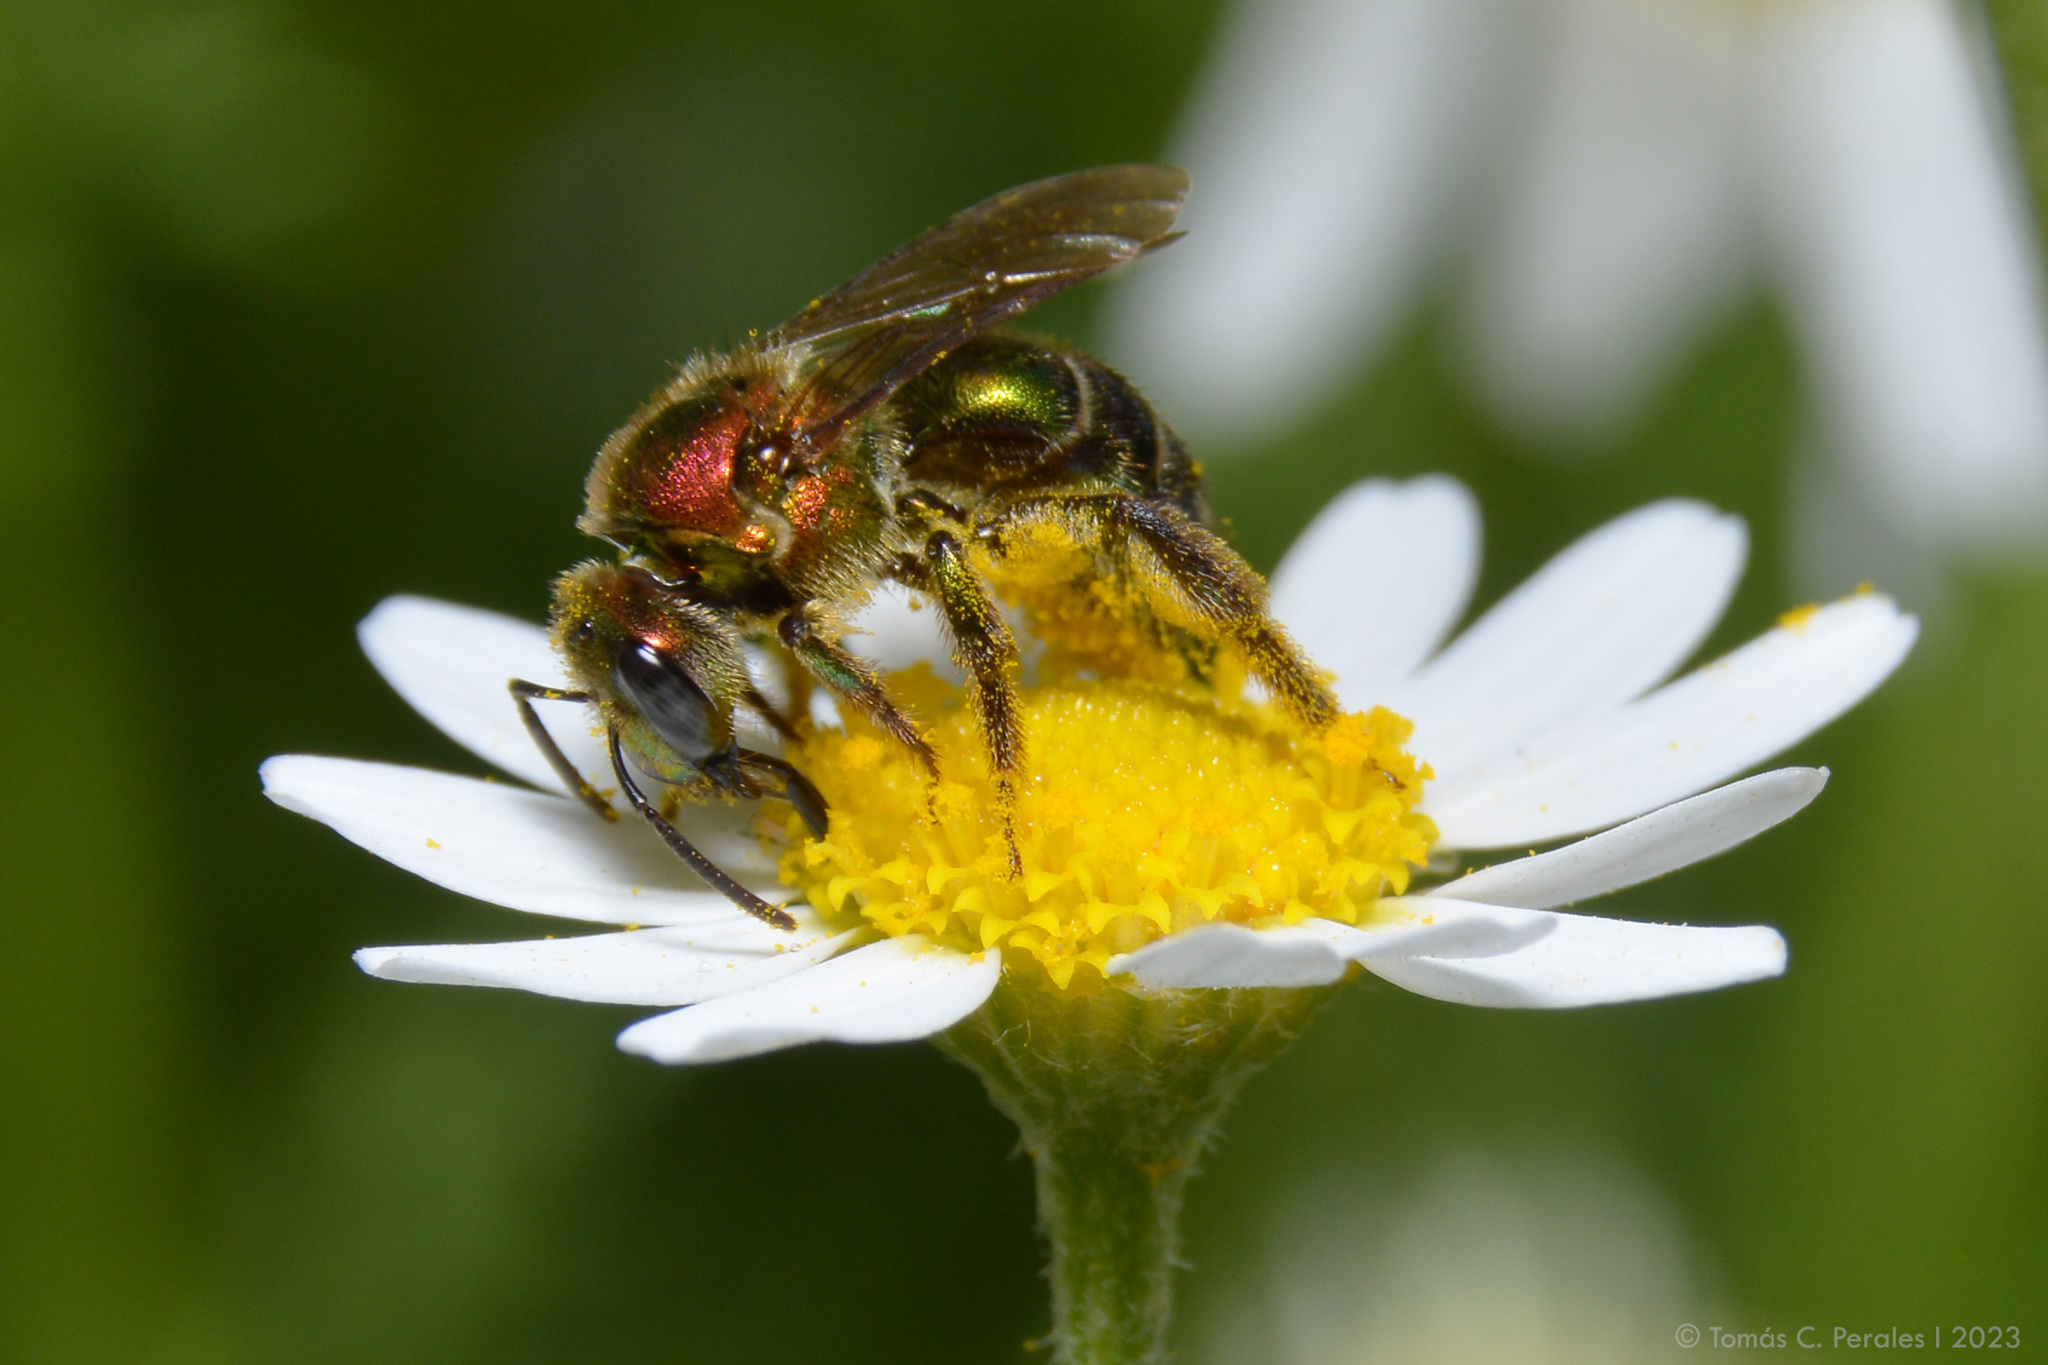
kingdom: Animalia
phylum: Arthropoda
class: Insecta
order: Hymenoptera
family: Halictidae
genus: Augochloropsis
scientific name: Augochloropsis tupacamaru
